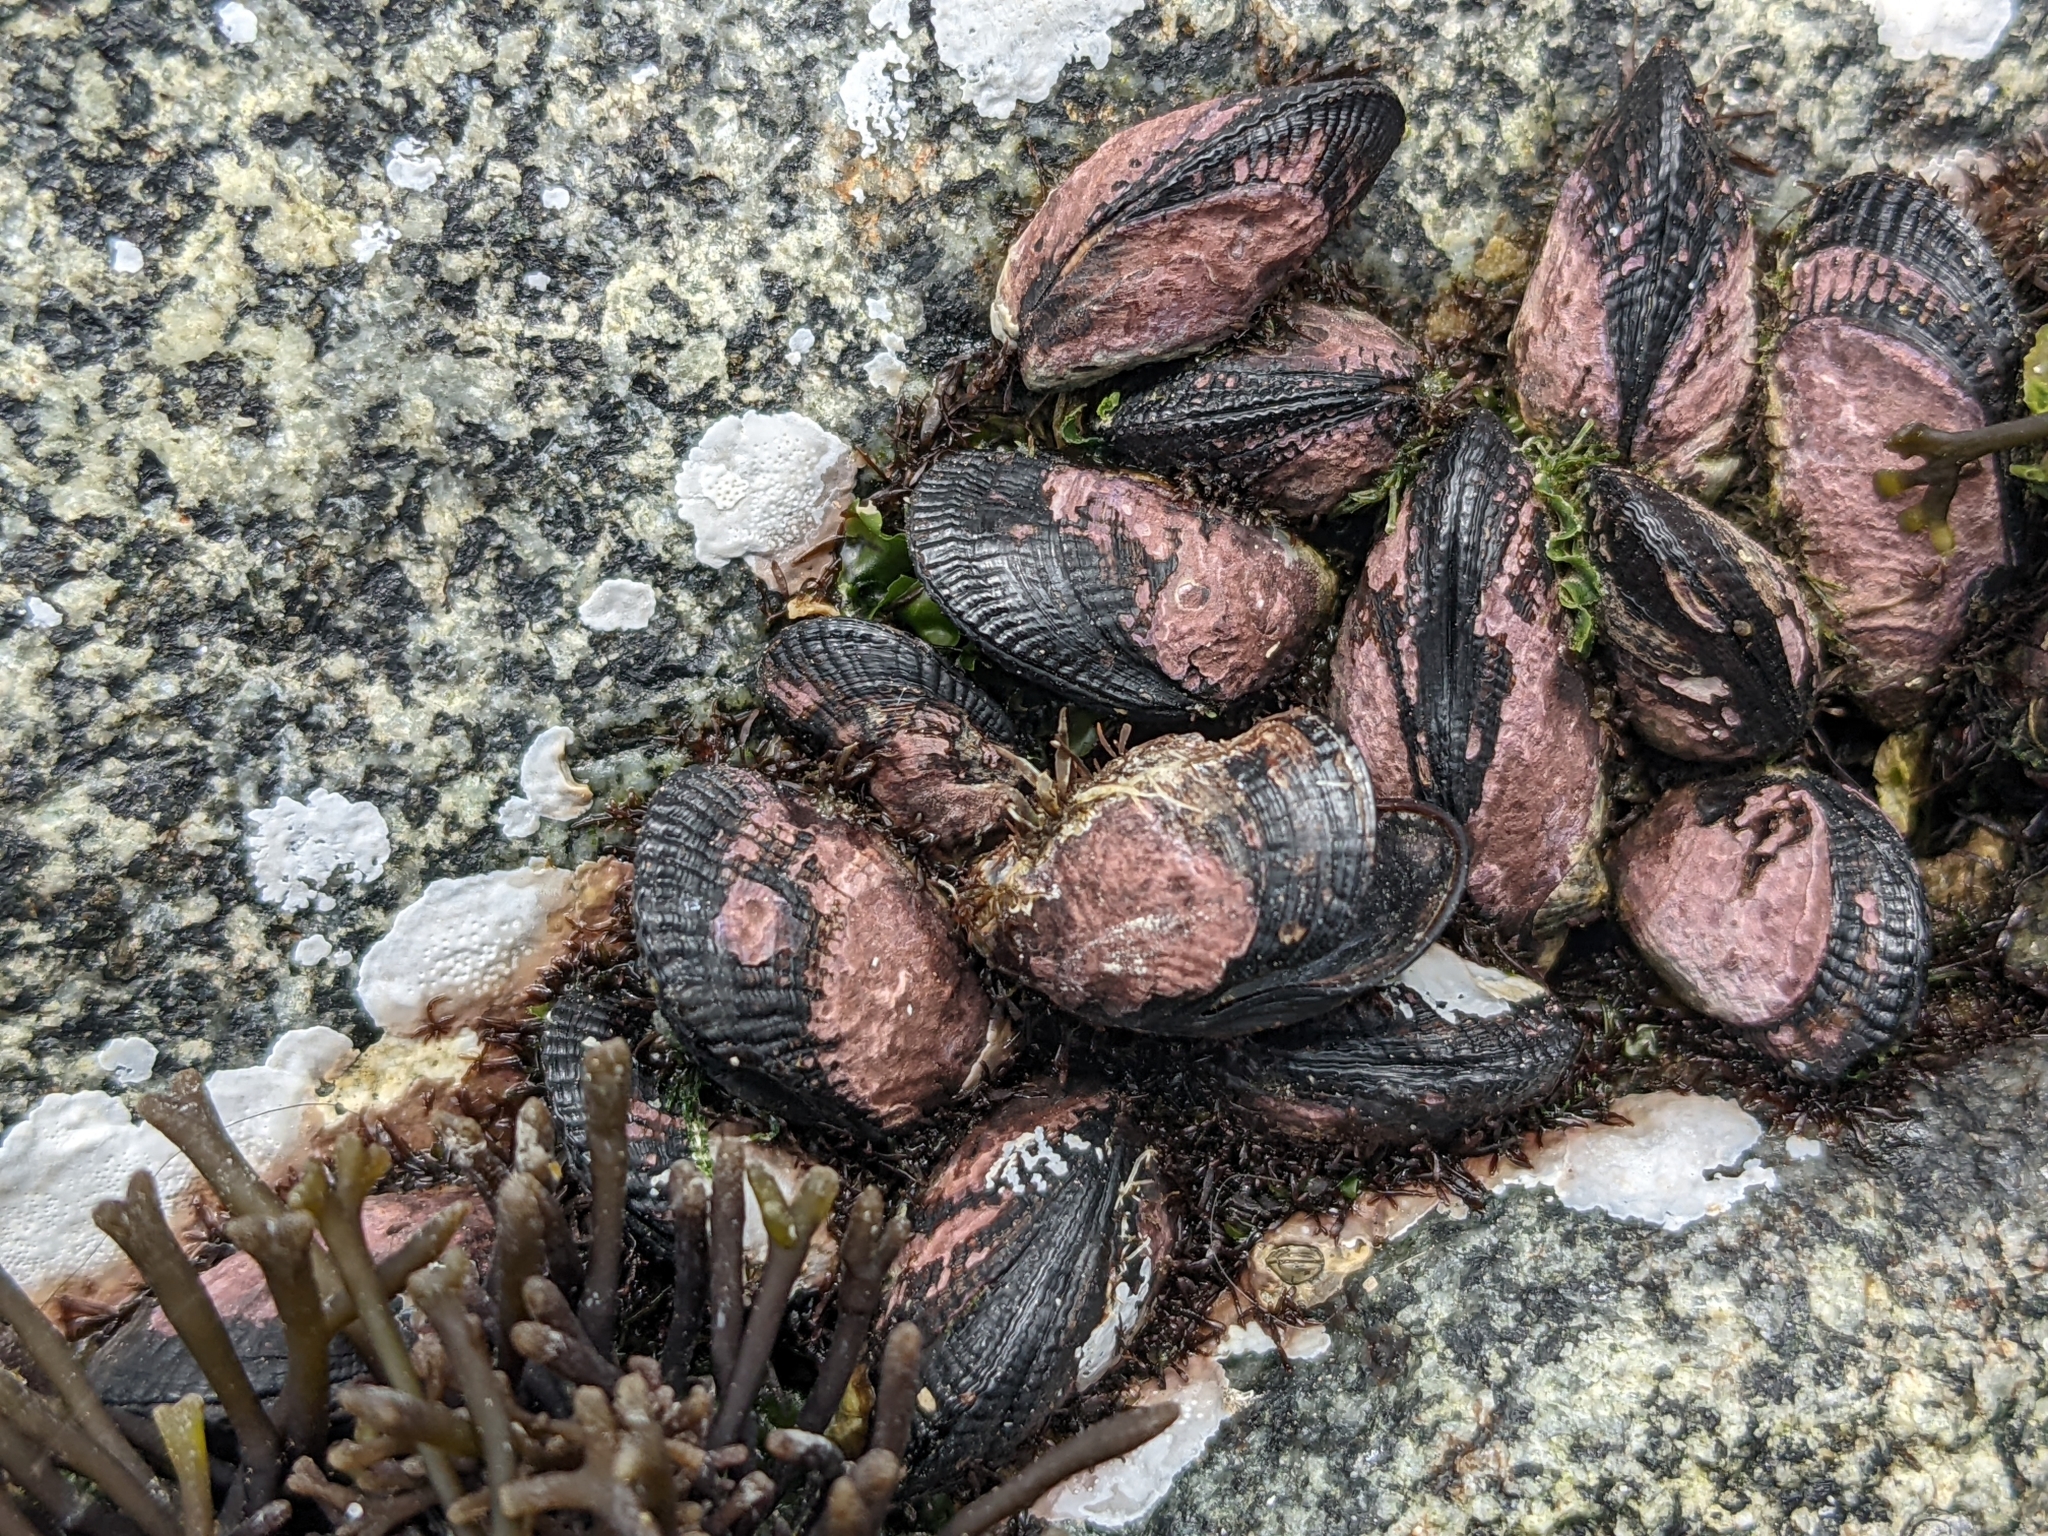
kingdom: Animalia
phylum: Mollusca
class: Bivalvia
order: Mytilida
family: Mytilidae
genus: Perumytilus
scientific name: Perumytilus purpuratus
